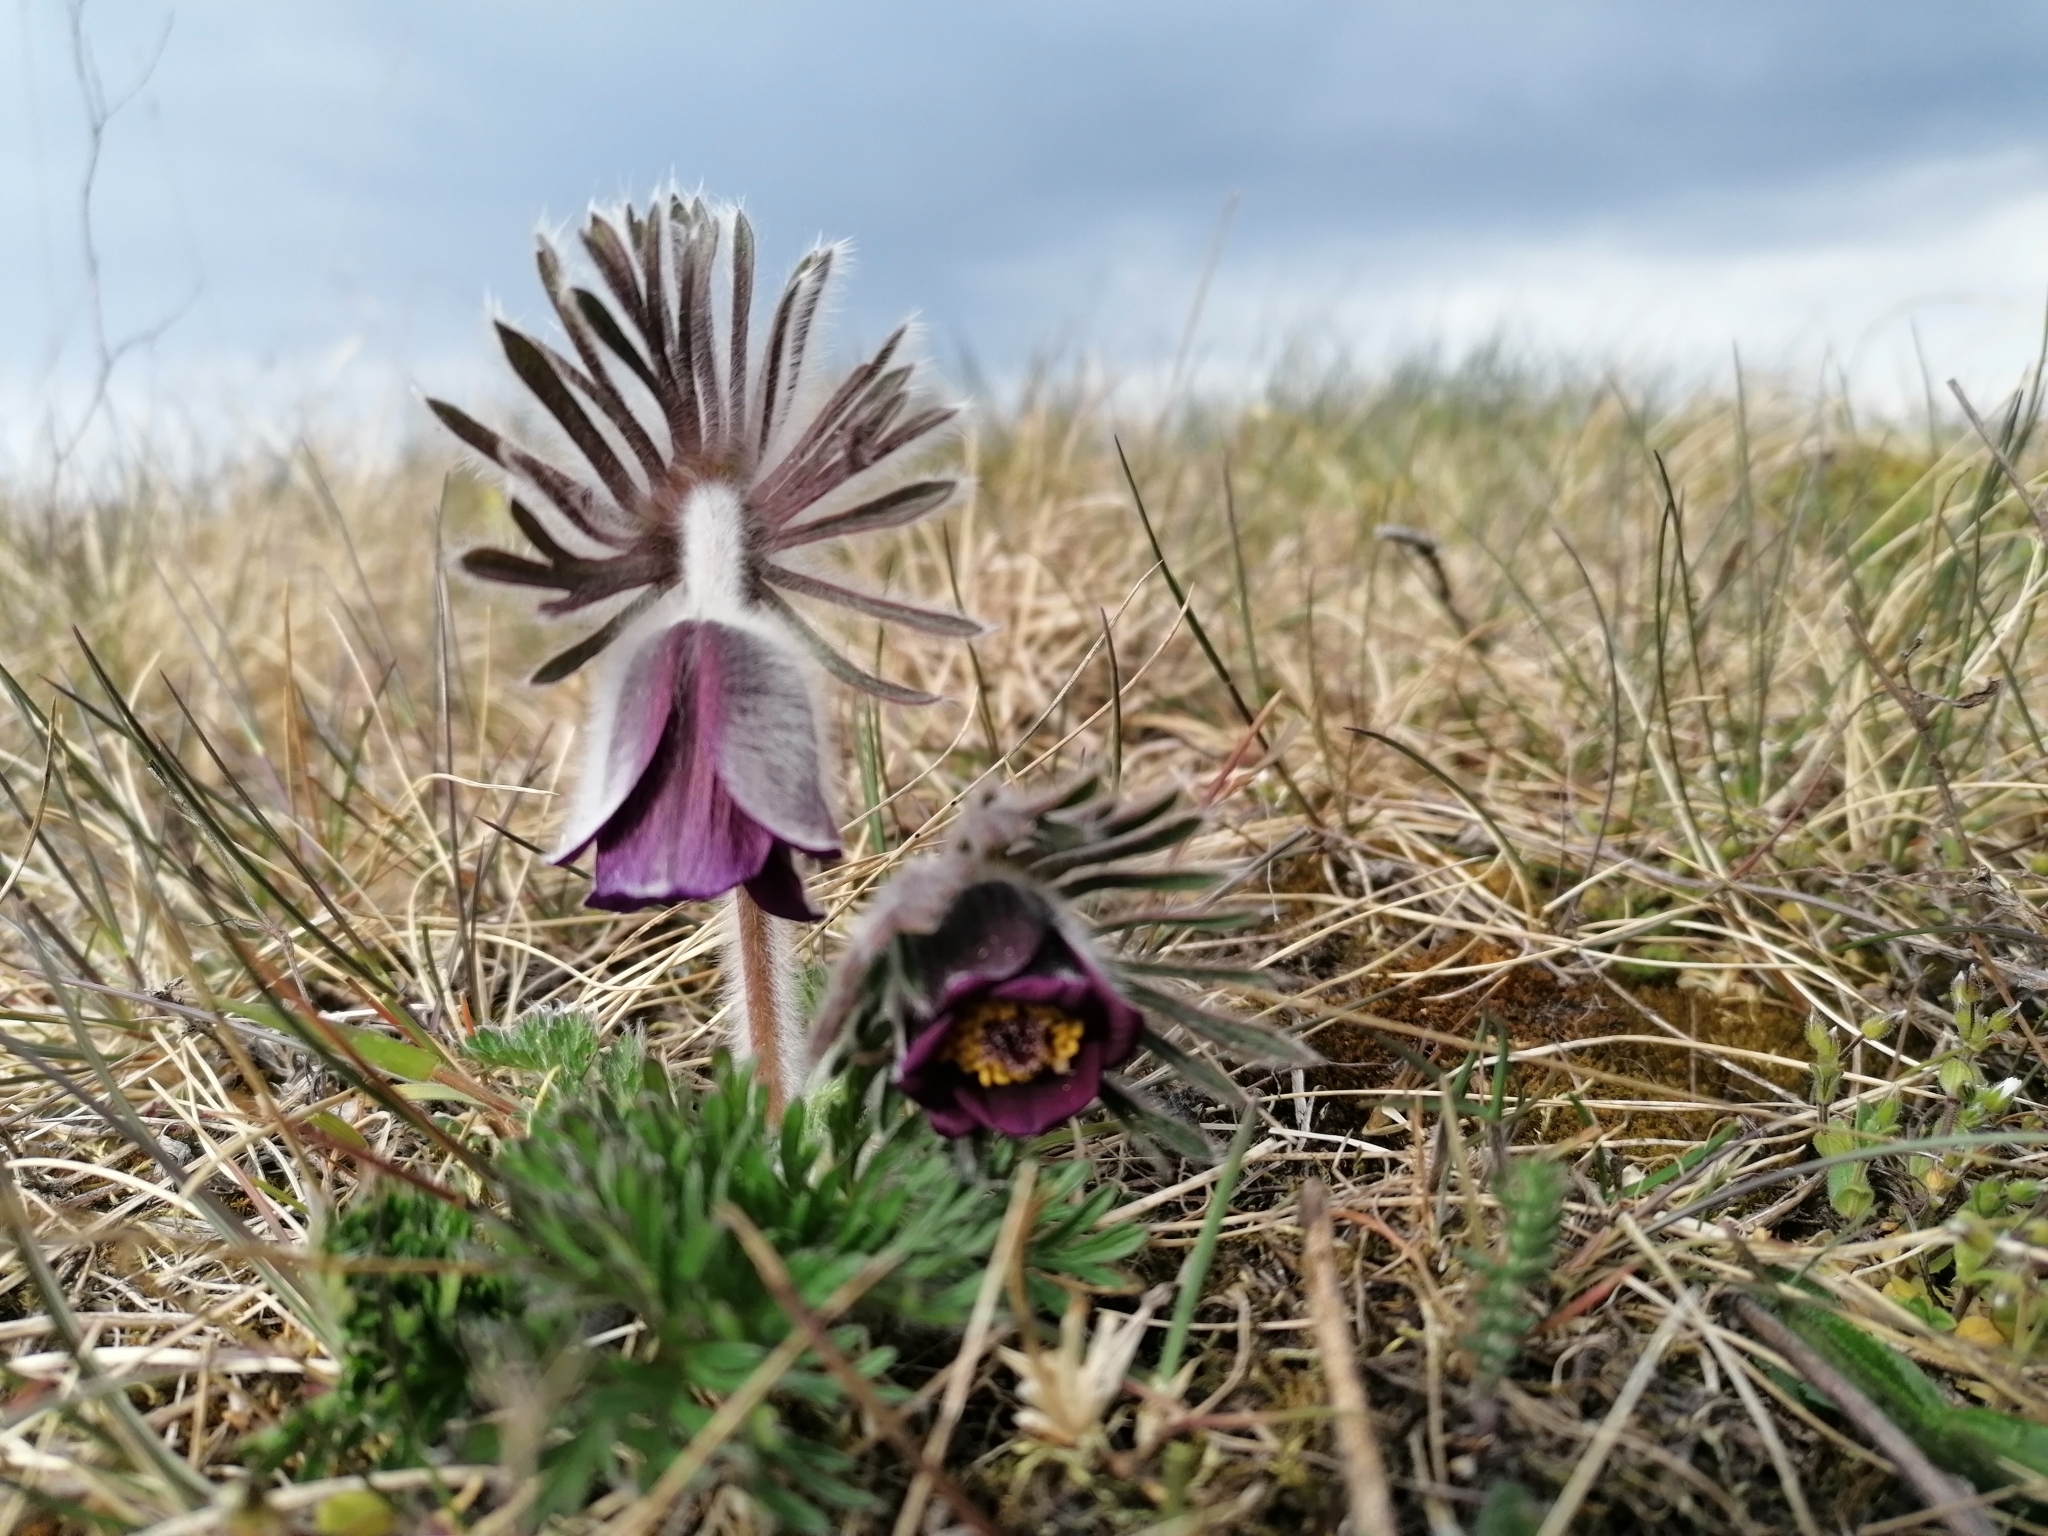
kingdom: Plantae
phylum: Tracheophyta
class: Magnoliopsida
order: Ranunculales
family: Ranunculaceae
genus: Pulsatilla
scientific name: Pulsatilla pratensis
